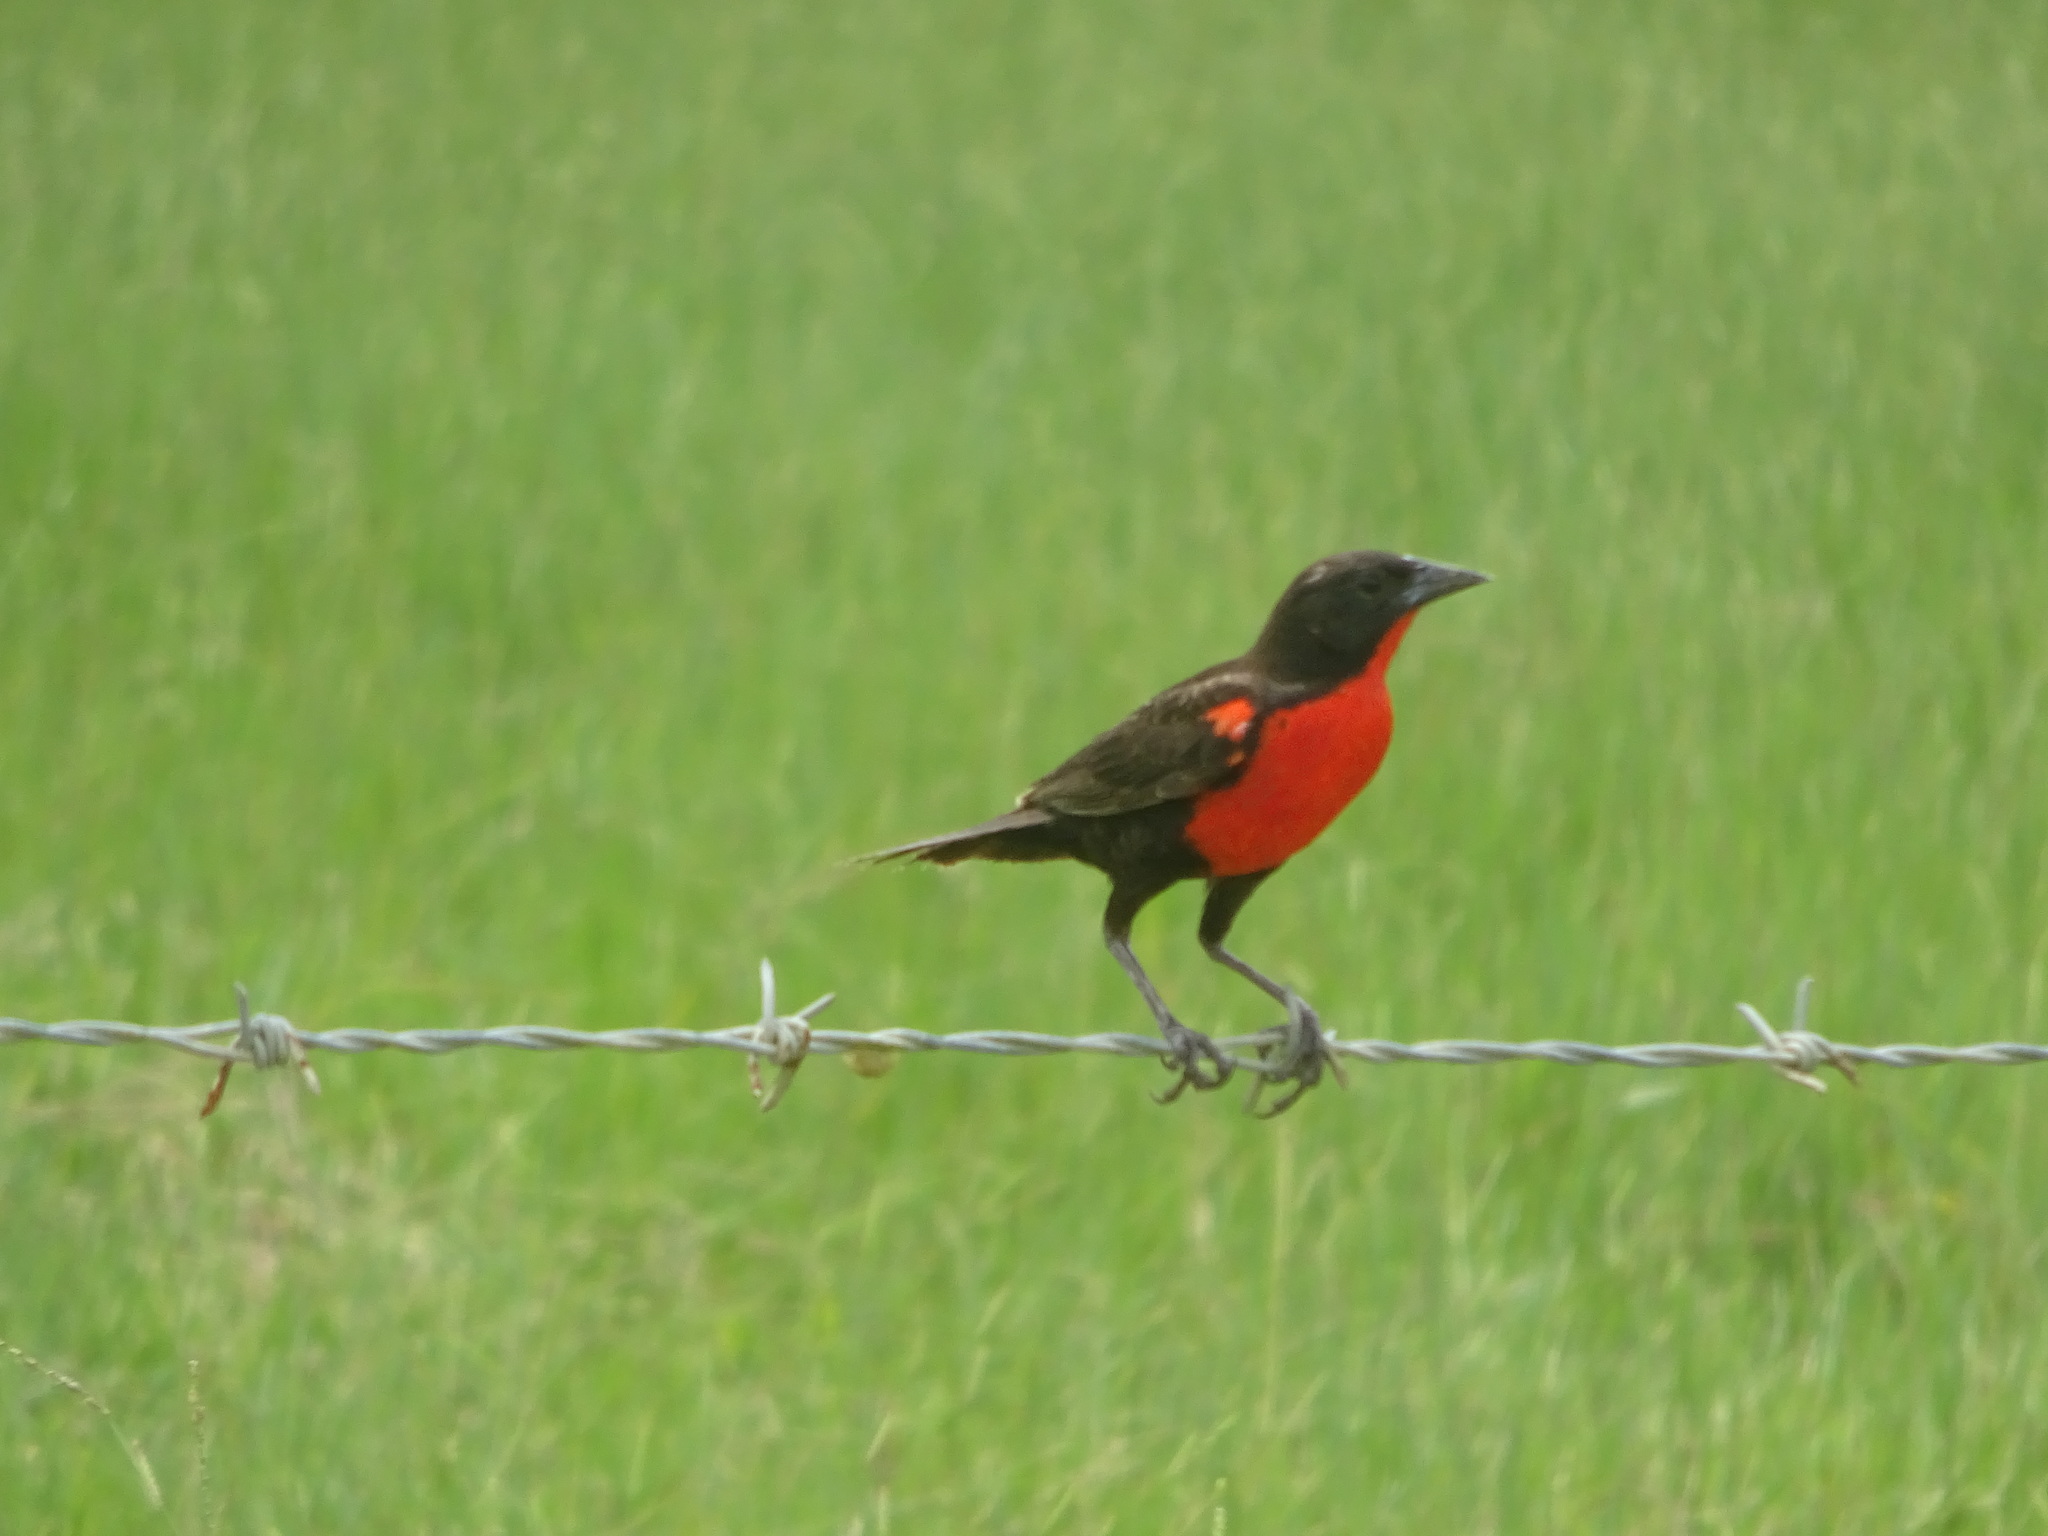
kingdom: Animalia
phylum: Chordata
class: Aves
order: Passeriformes
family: Icteridae
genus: Sturnella
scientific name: Sturnella militaris
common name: Red-breasted blackbird
